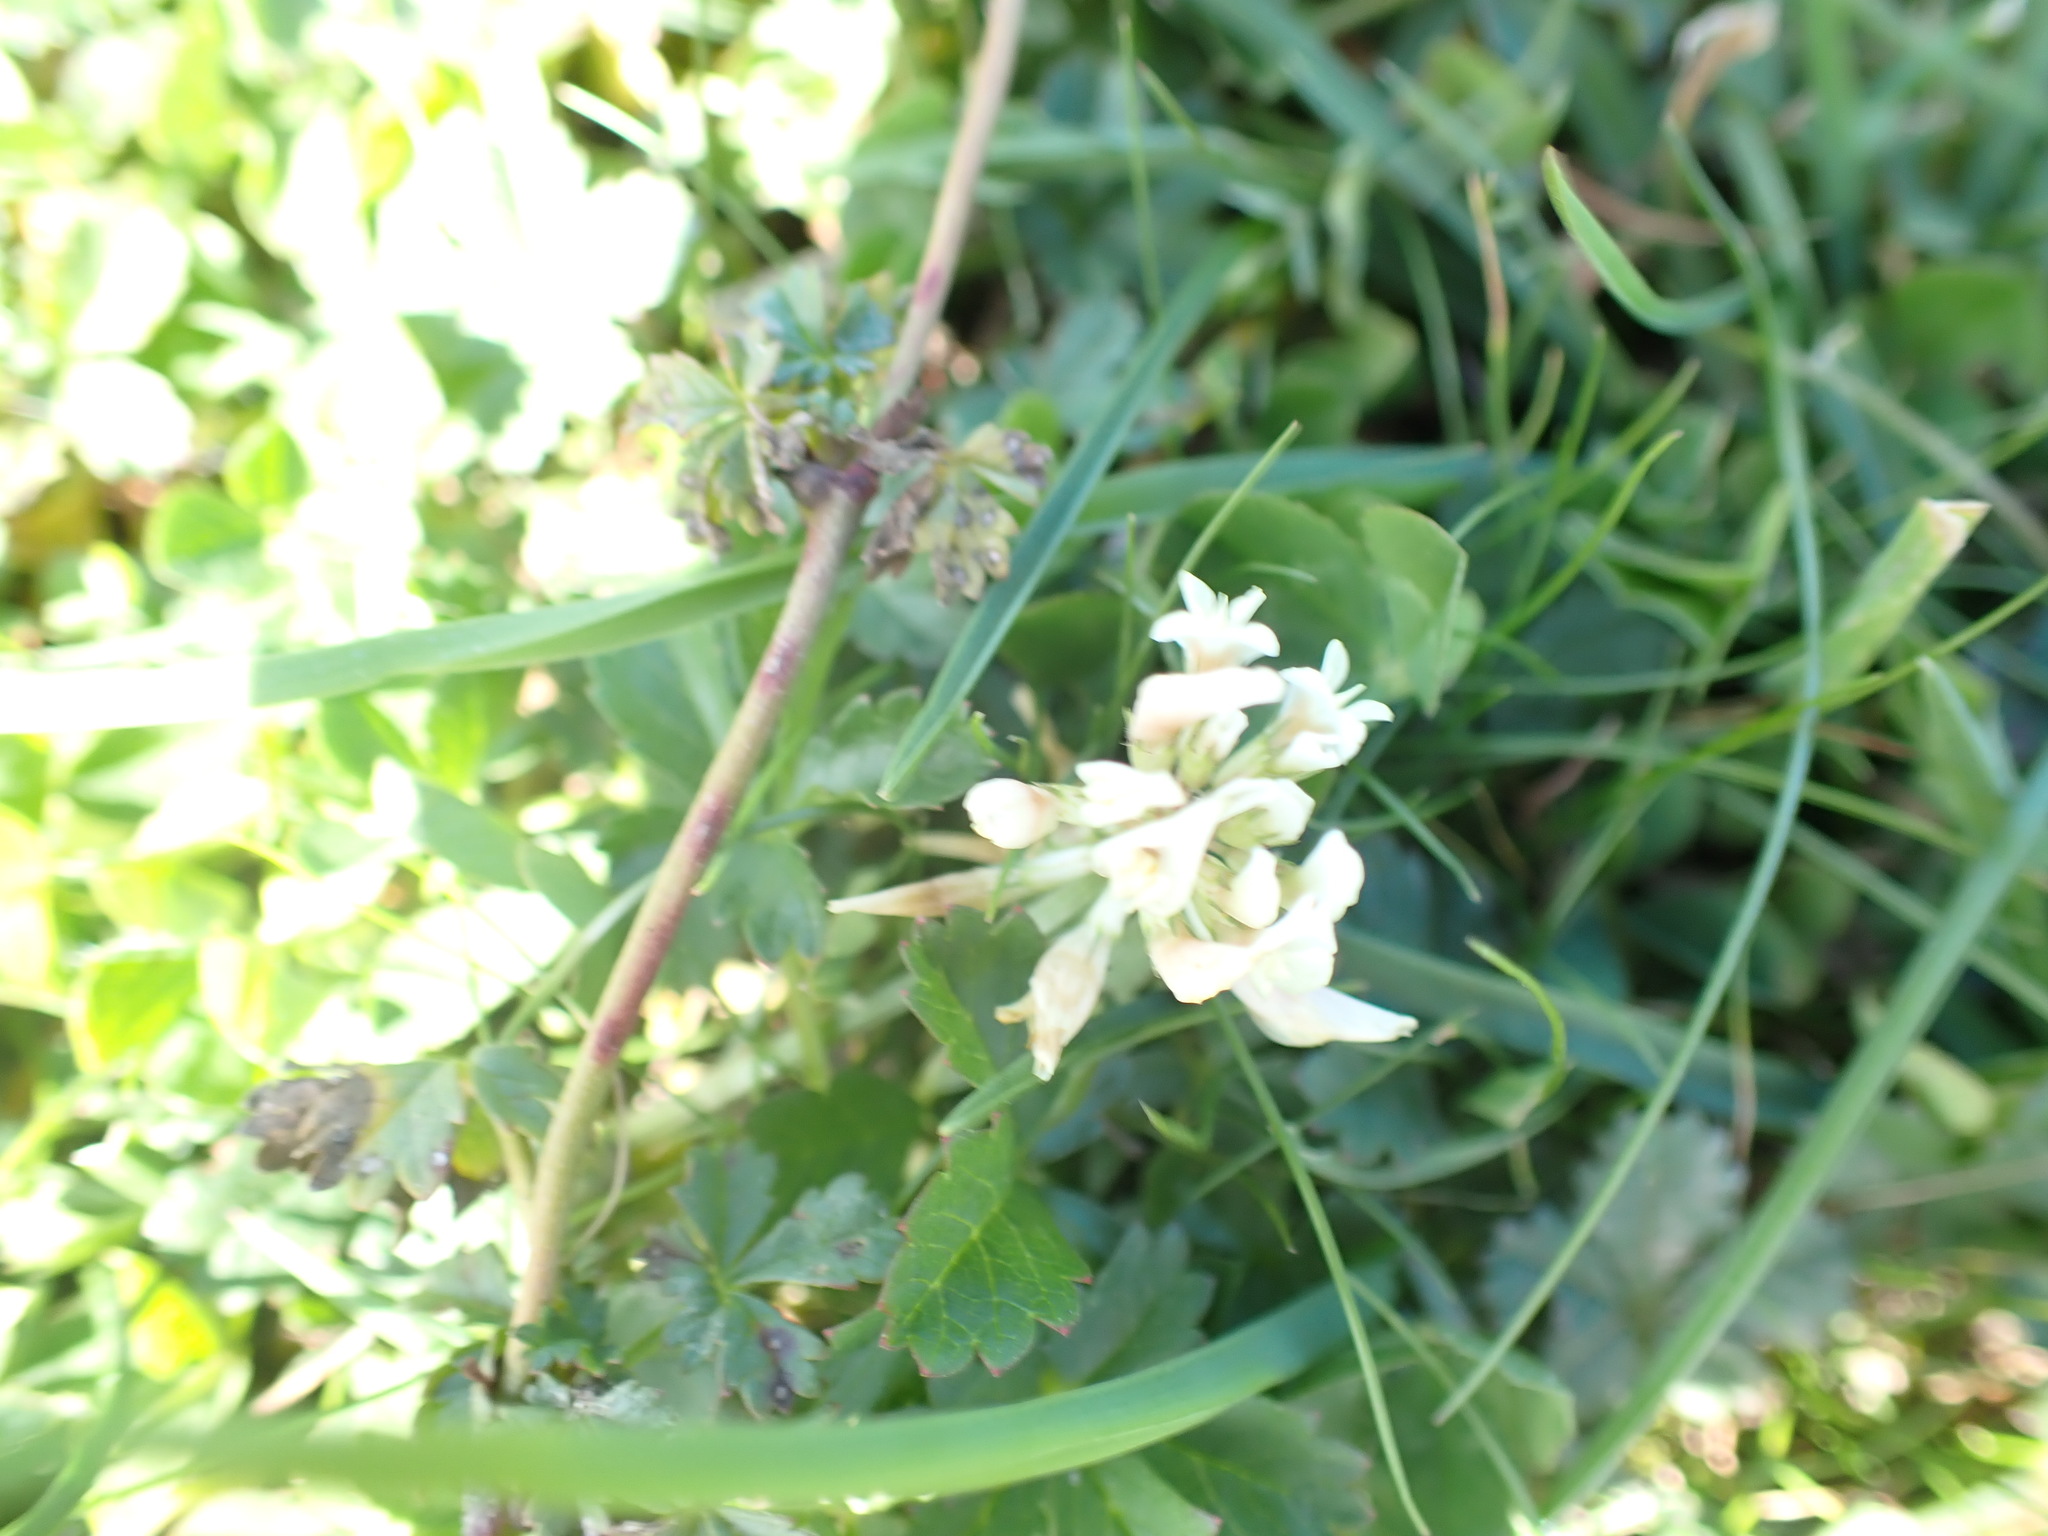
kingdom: Plantae
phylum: Tracheophyta
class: Magnoliopsida
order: Fabales
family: Fabaceae
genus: Trifolium
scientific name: Trifolium repens
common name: White clover
